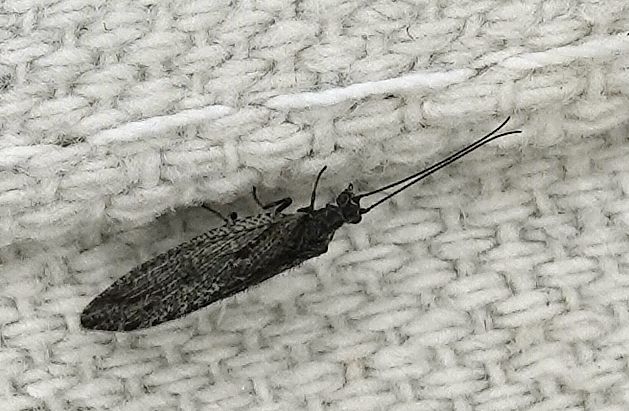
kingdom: Animalia
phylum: Arthropoda
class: Insecta
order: Neuroptera
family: Hemerobiidae
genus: Micromus
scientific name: Micromus variolosus
